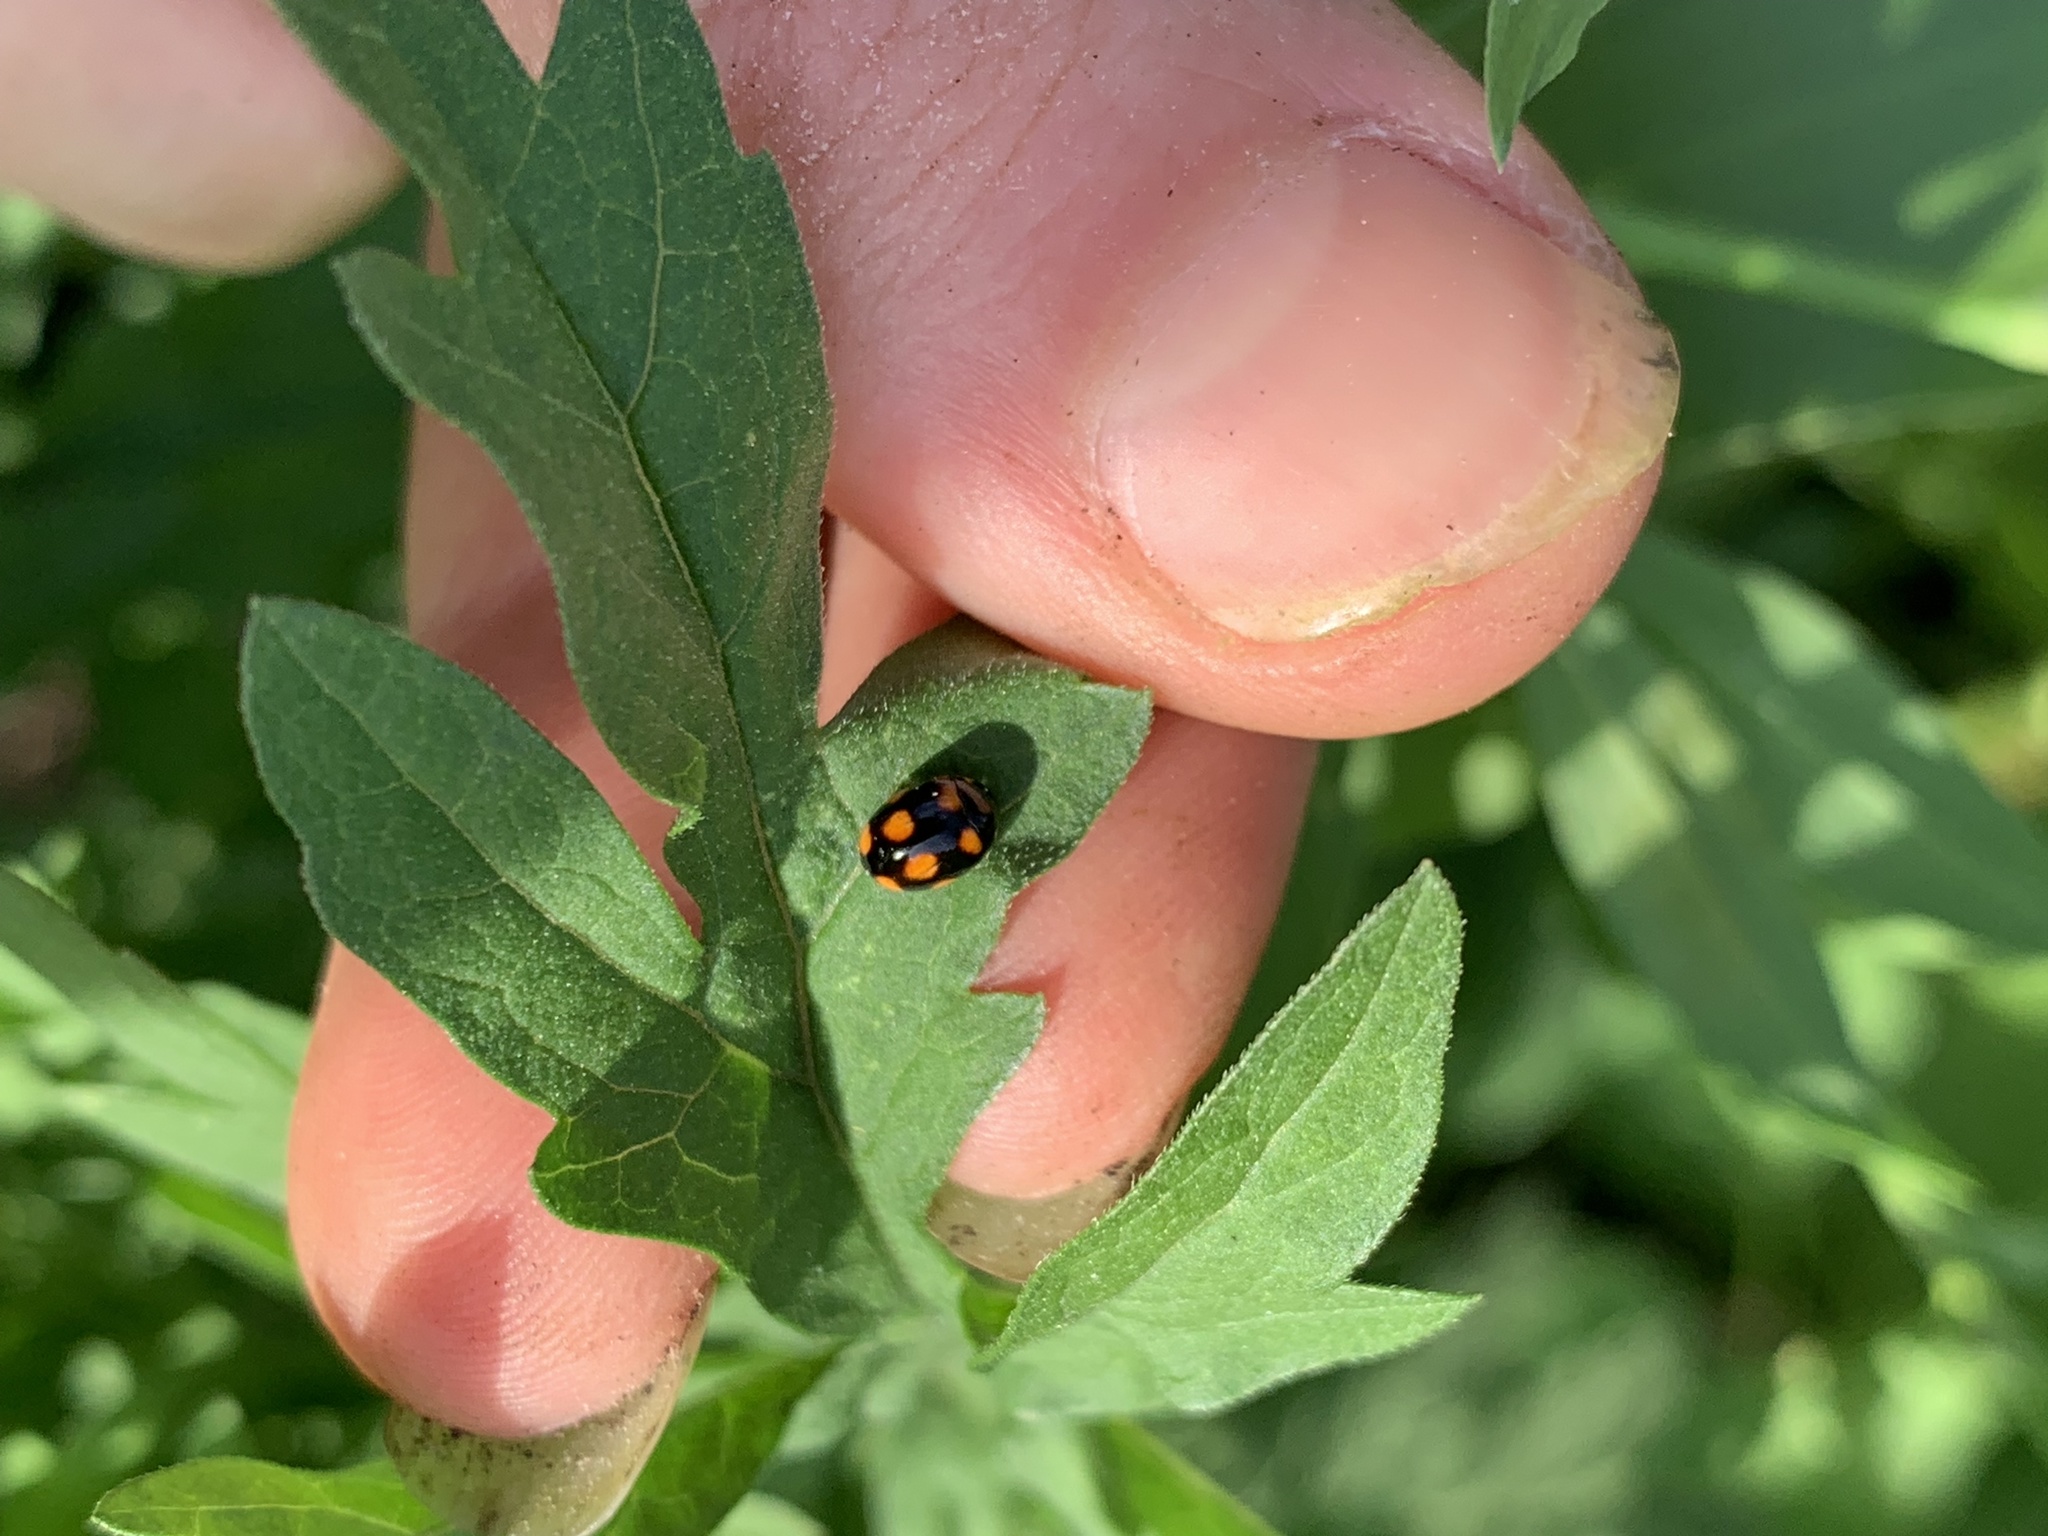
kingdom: Animalia
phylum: Arthropoda
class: Insecta
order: Coleoptera
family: Coccinellidae
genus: Brachiacantha
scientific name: Brachiacantha ursina
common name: Ursine spurleg lady beetle
